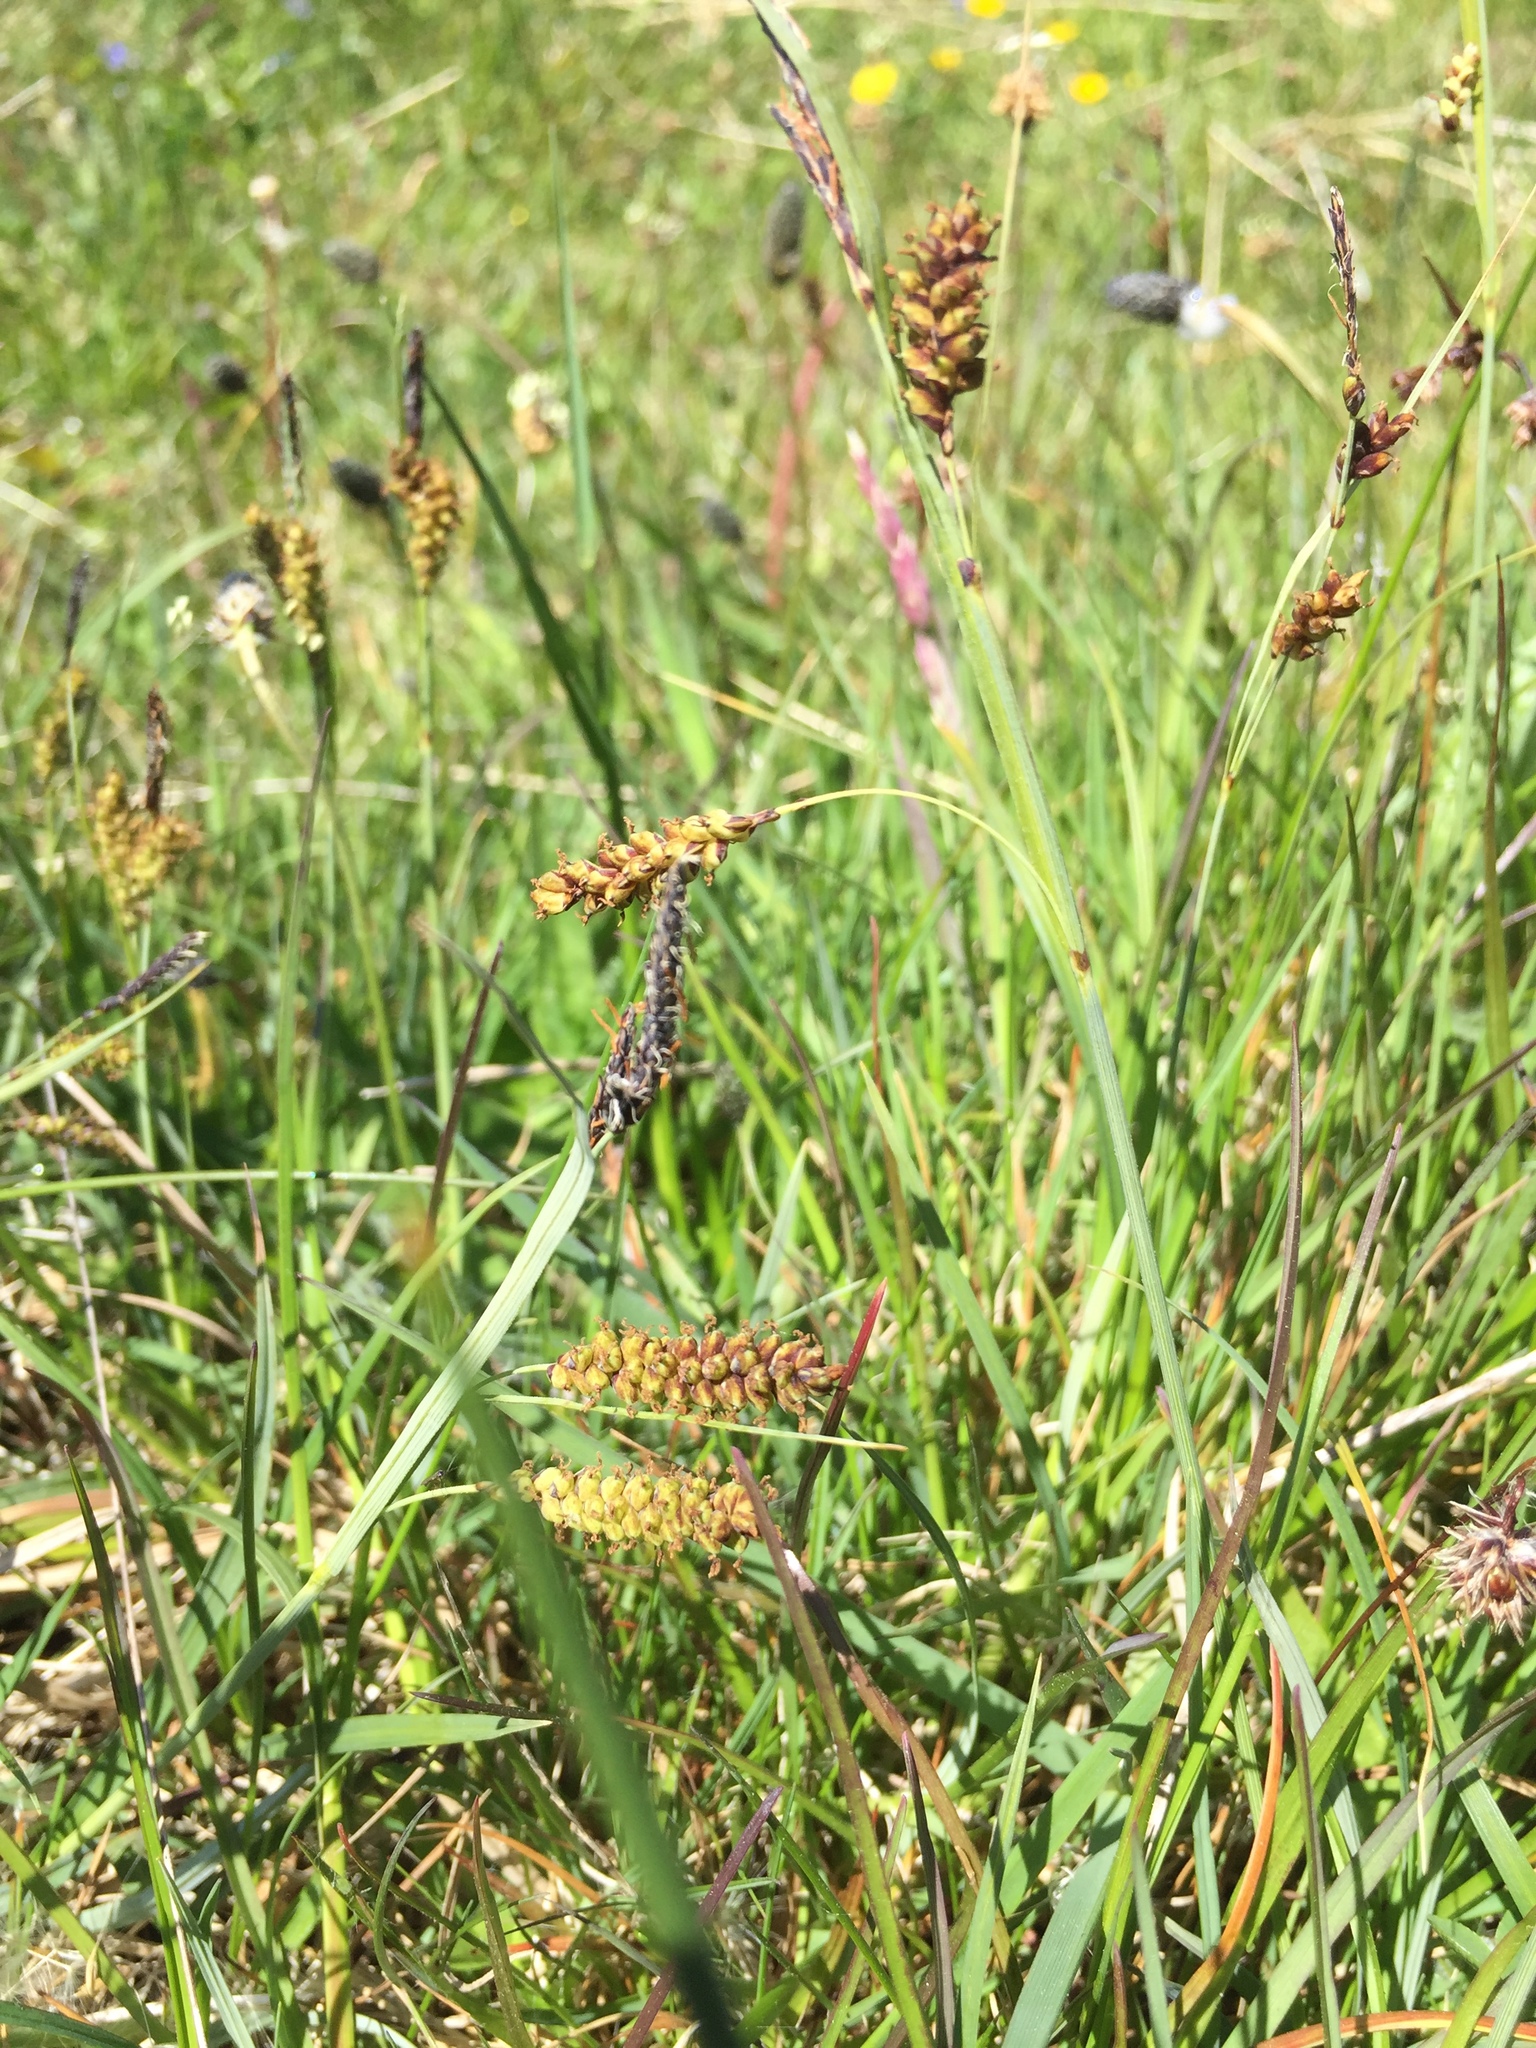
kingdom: Plantae
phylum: Tracheophyta
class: Liliopsida
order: Poales
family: Cyperaceae
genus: Carex
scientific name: Carex flacca
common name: Glaucous sedge
